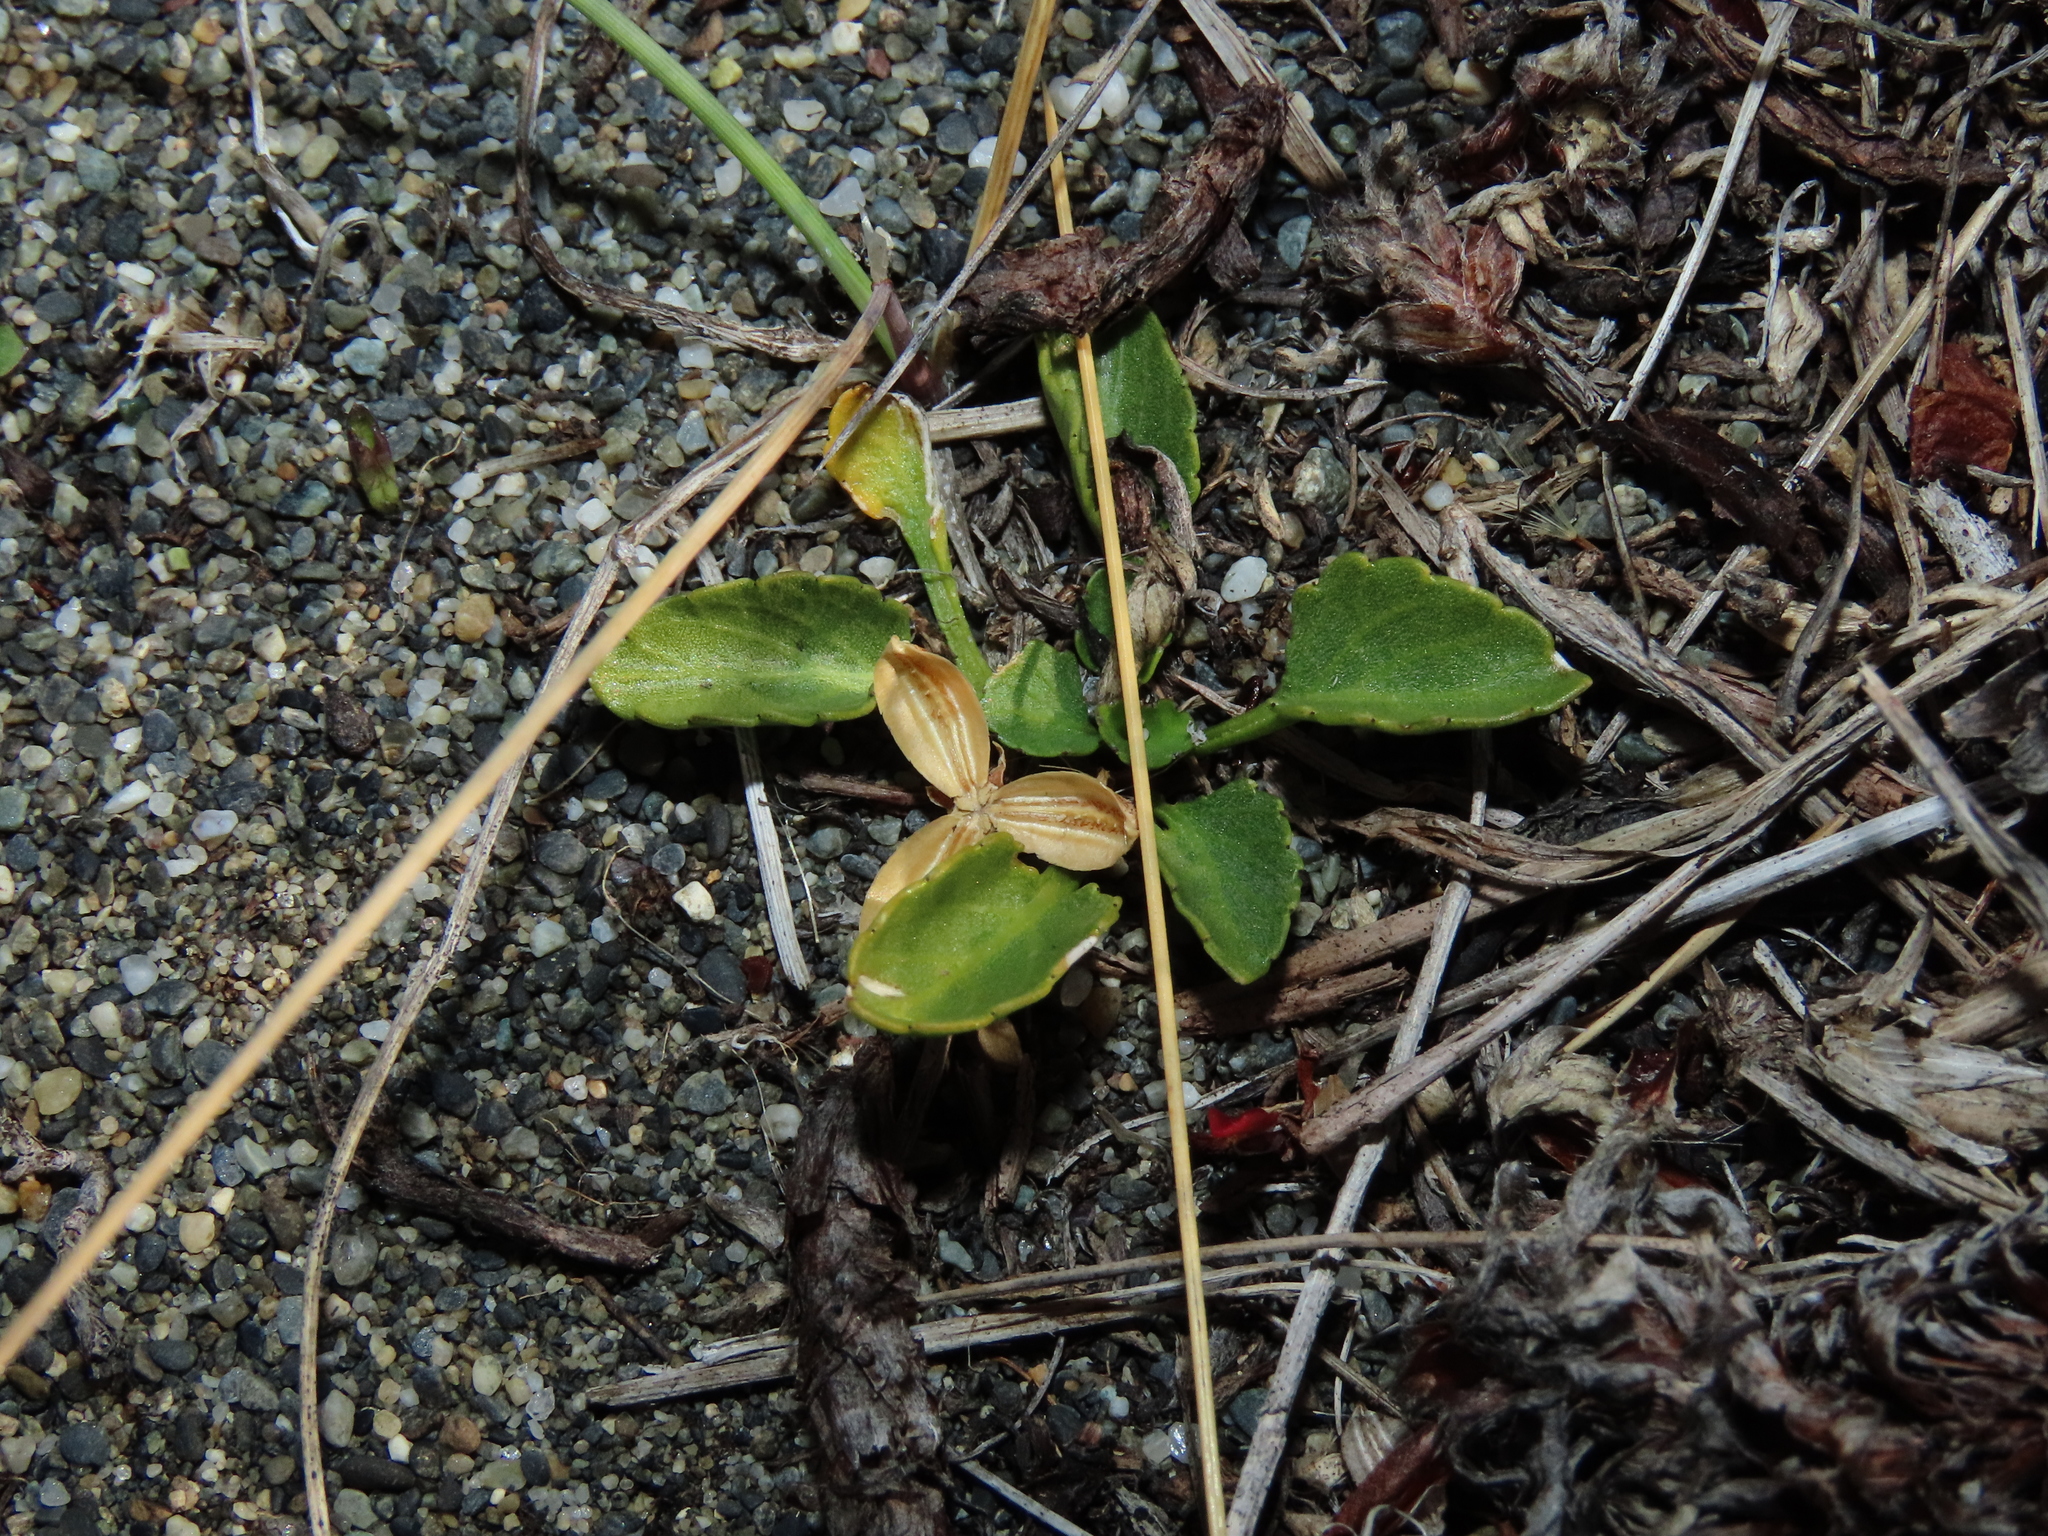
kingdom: Plantae
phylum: Tracheophyta
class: Magnoliopsida
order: Malpighiales
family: Violaceae
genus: Viola
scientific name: Viola maculata
